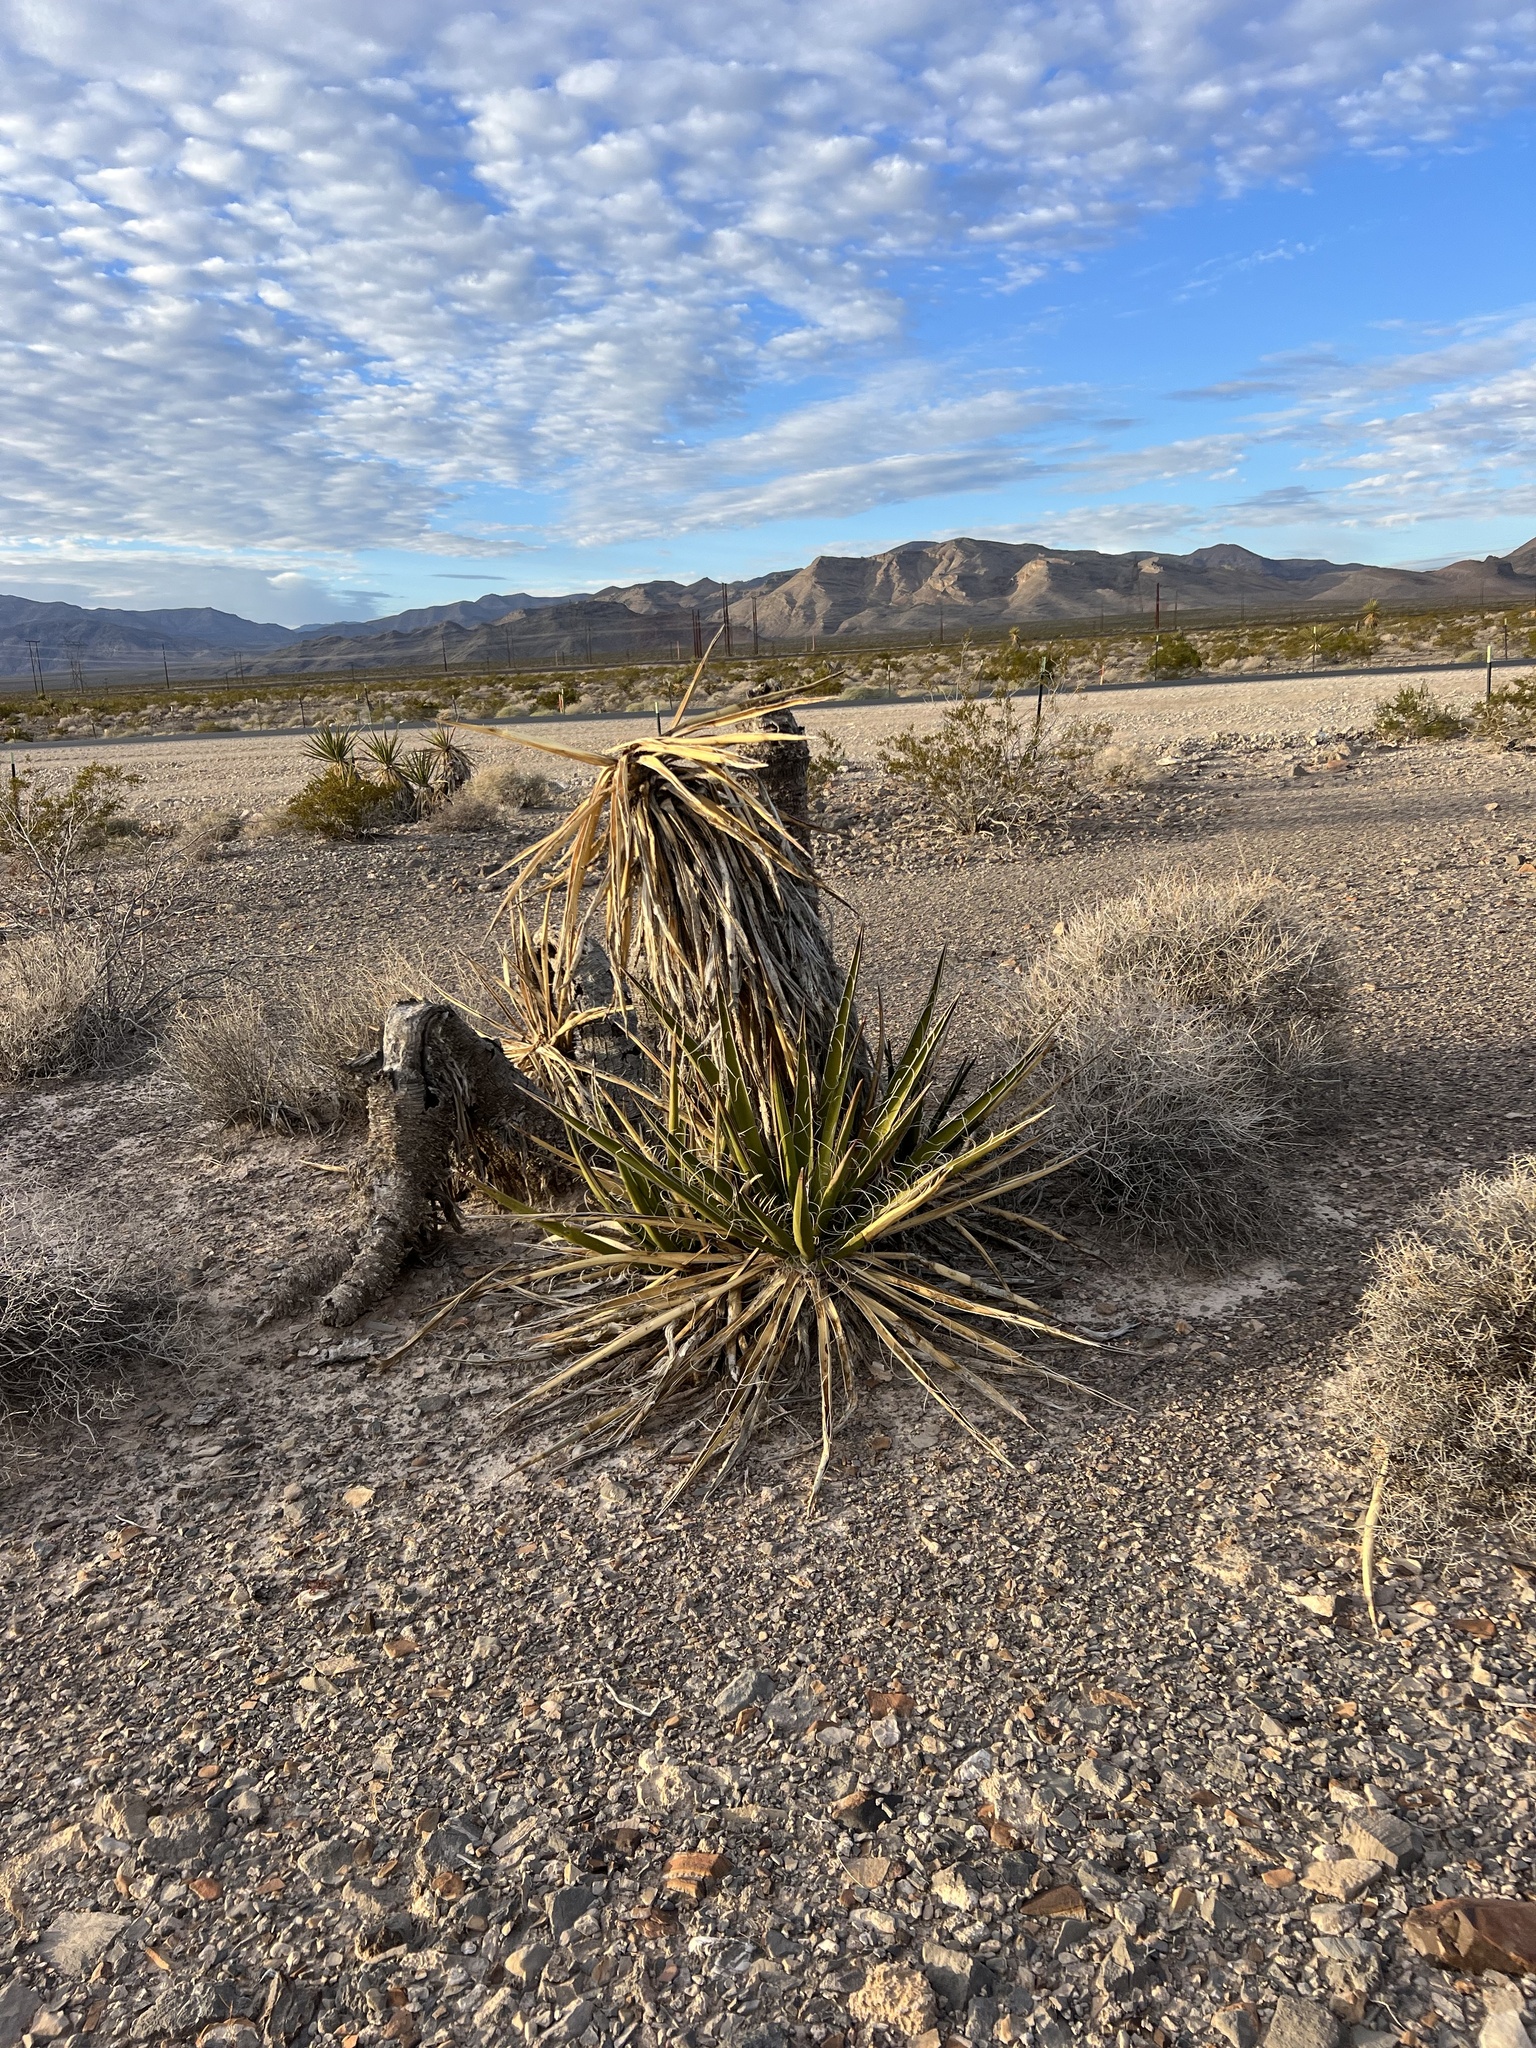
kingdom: Plantae
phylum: Tracheophyta
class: Liliopsida
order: Asparagales
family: Asparagaceae
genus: Yucca
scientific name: Yucca schidigera
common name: Mojave yucca
